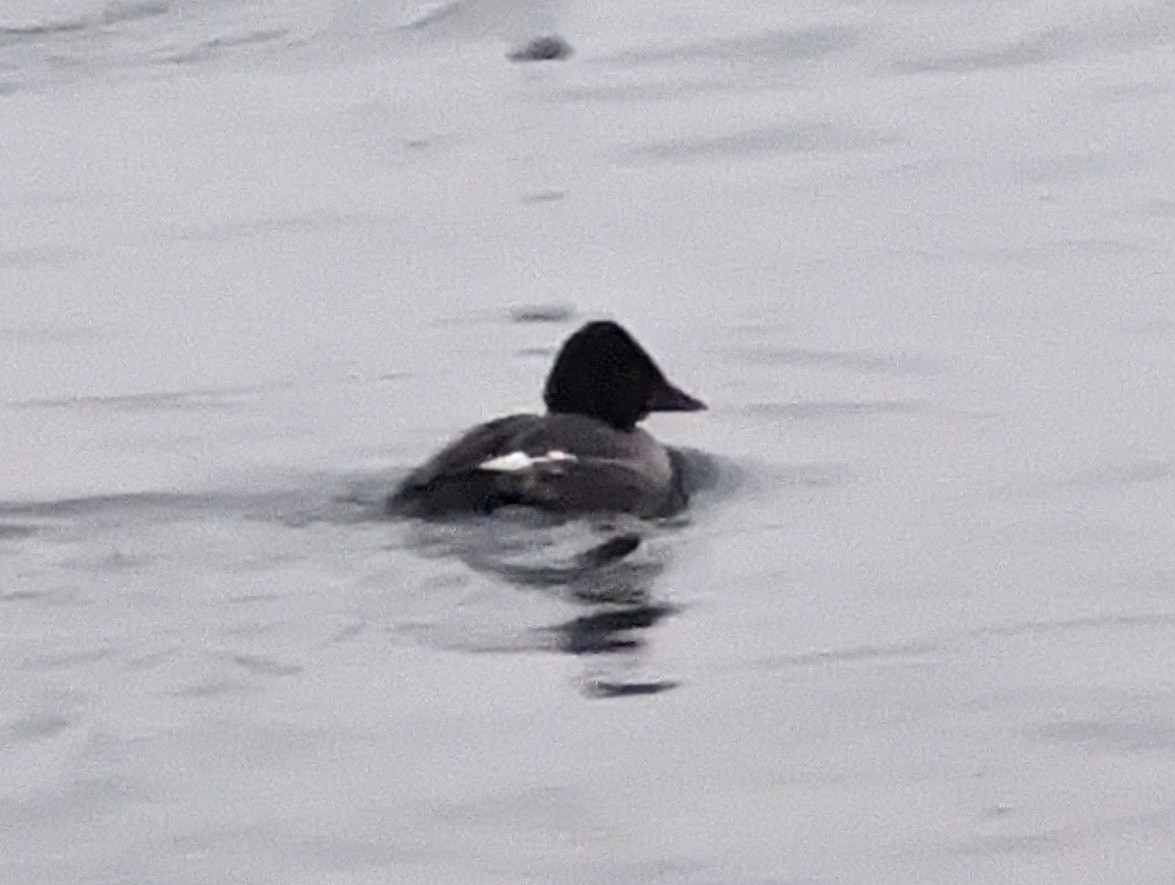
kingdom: Animalia
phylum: Chordata
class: Aves
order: Anseriformes
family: Anatidae
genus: Bucephala
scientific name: Bucephala clangula
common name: Common goldeneye
